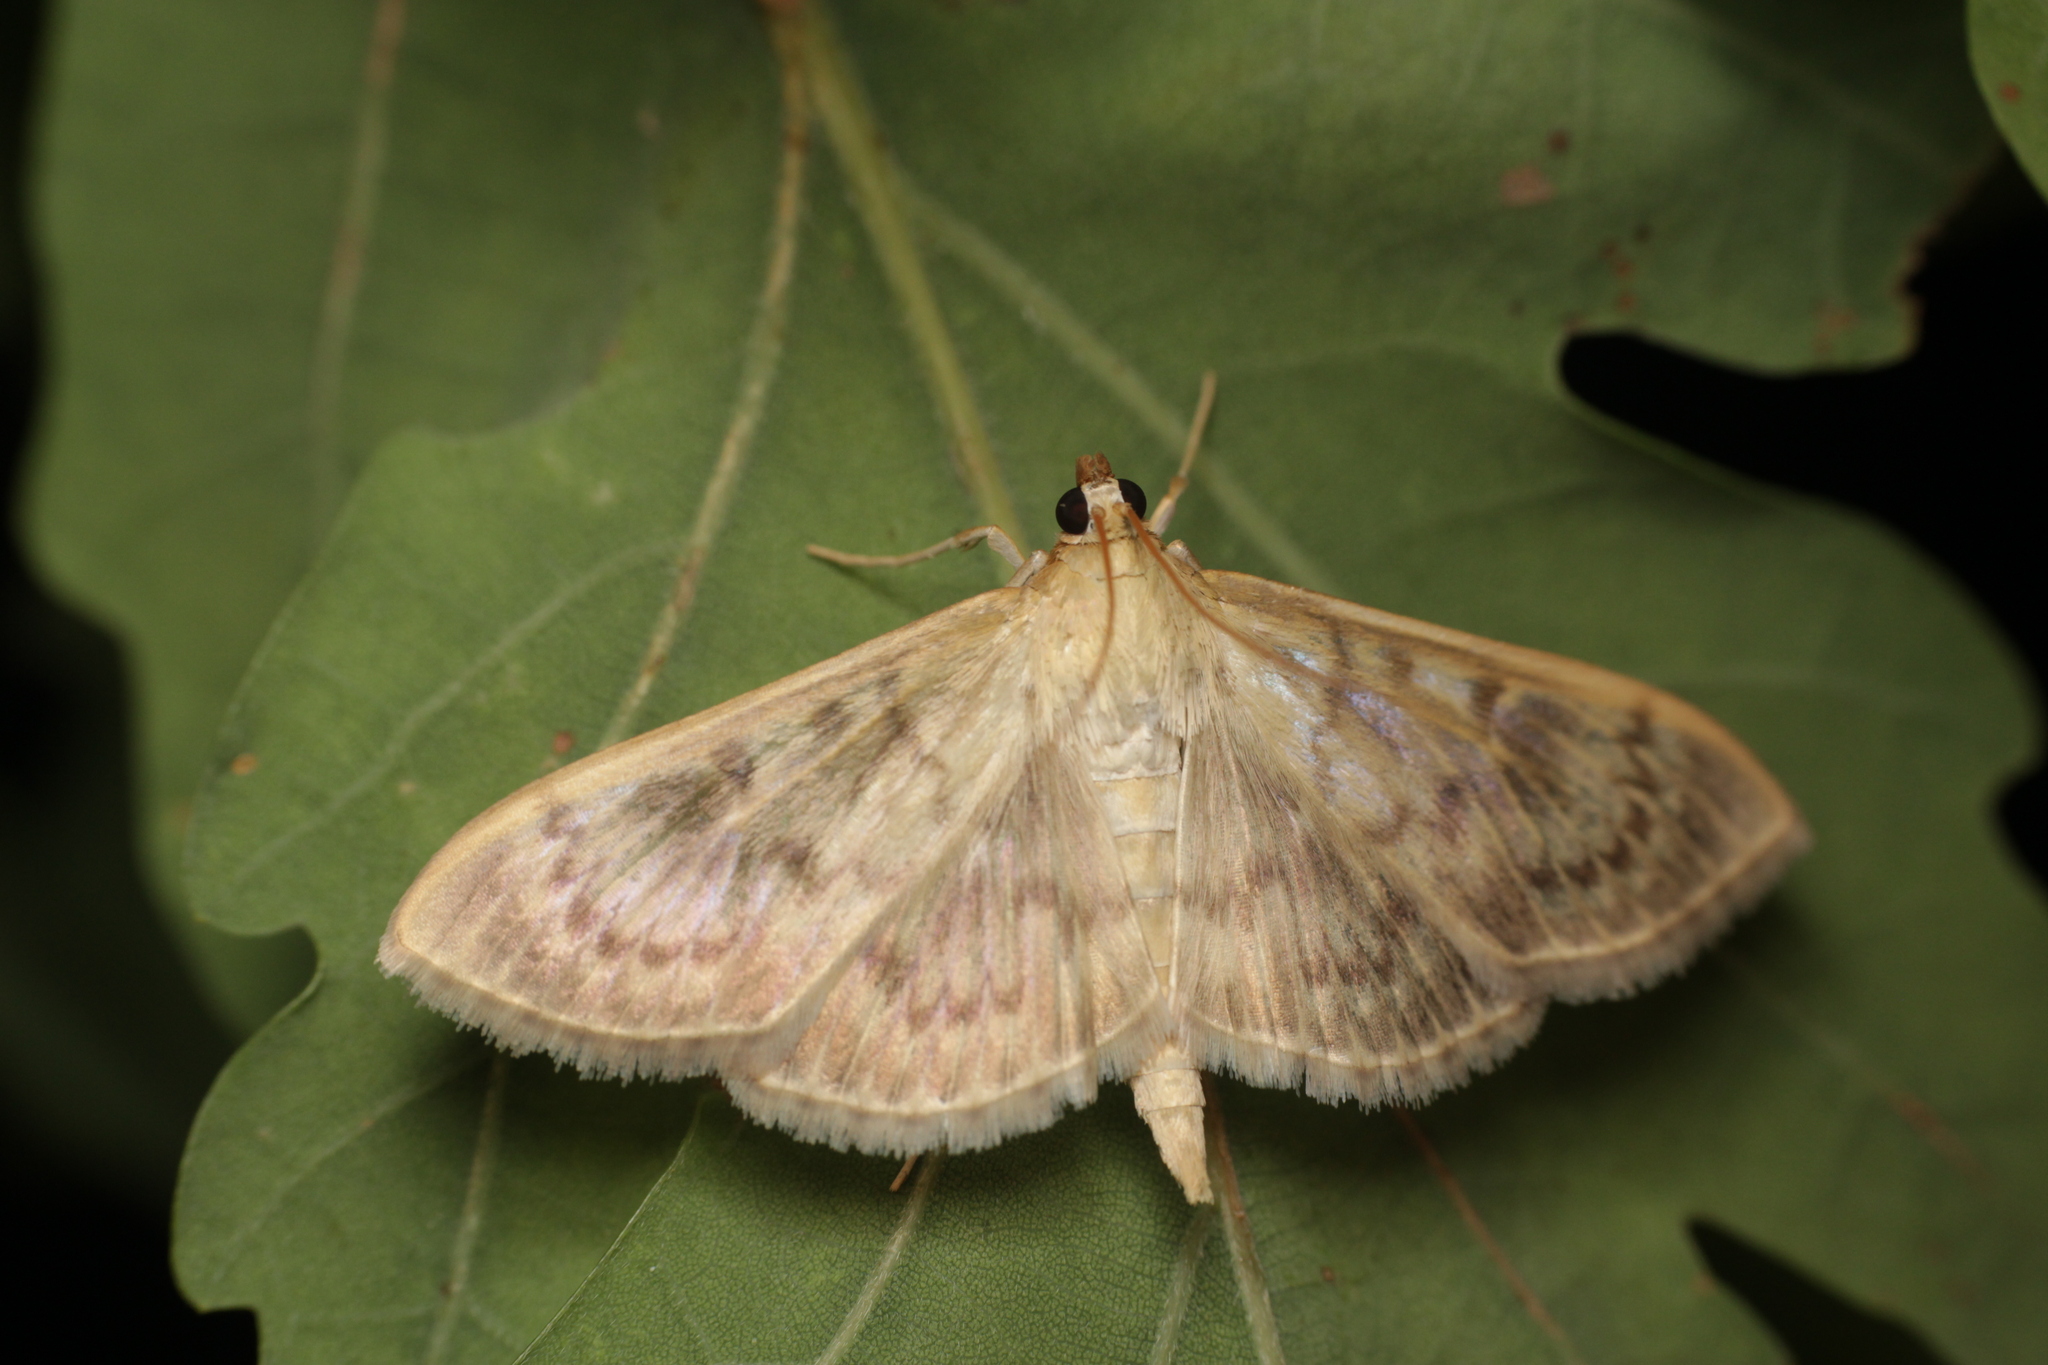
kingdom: Animalia
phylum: Arthropoda
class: Insecta
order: Lepidoptera
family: Crambidae
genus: Patania
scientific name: Patania ruralis
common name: Mother of pearl
